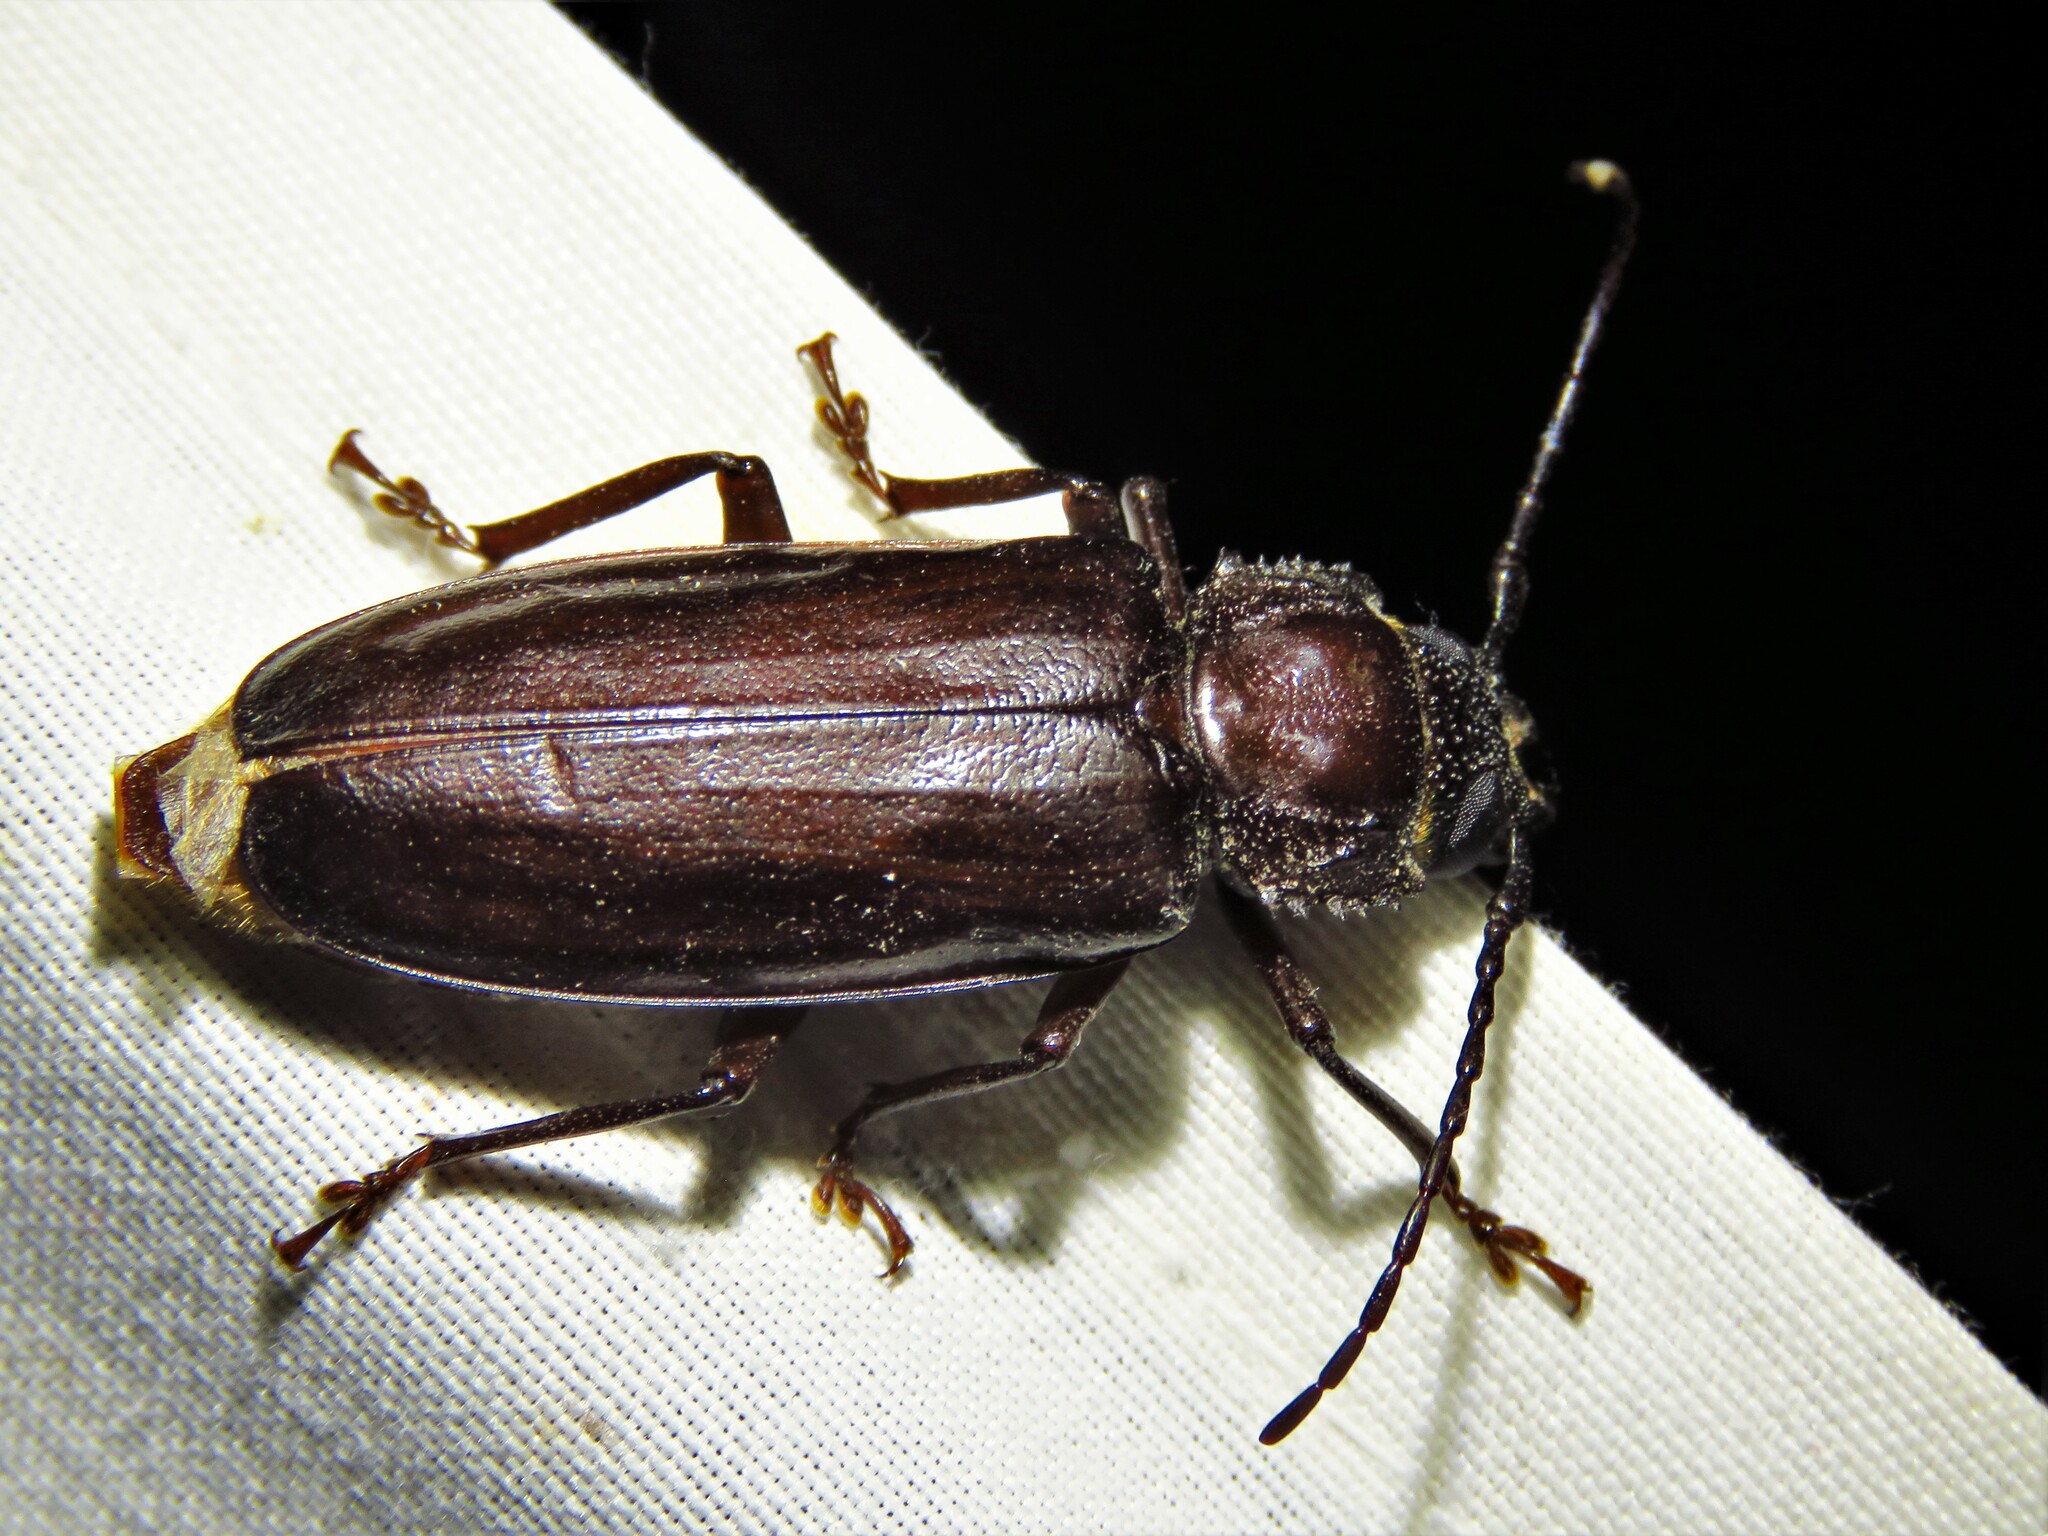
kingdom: Animalia
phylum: Arthropoda
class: Insecta
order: Coleoptera
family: Cerambycidae
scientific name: Cerambycidae
